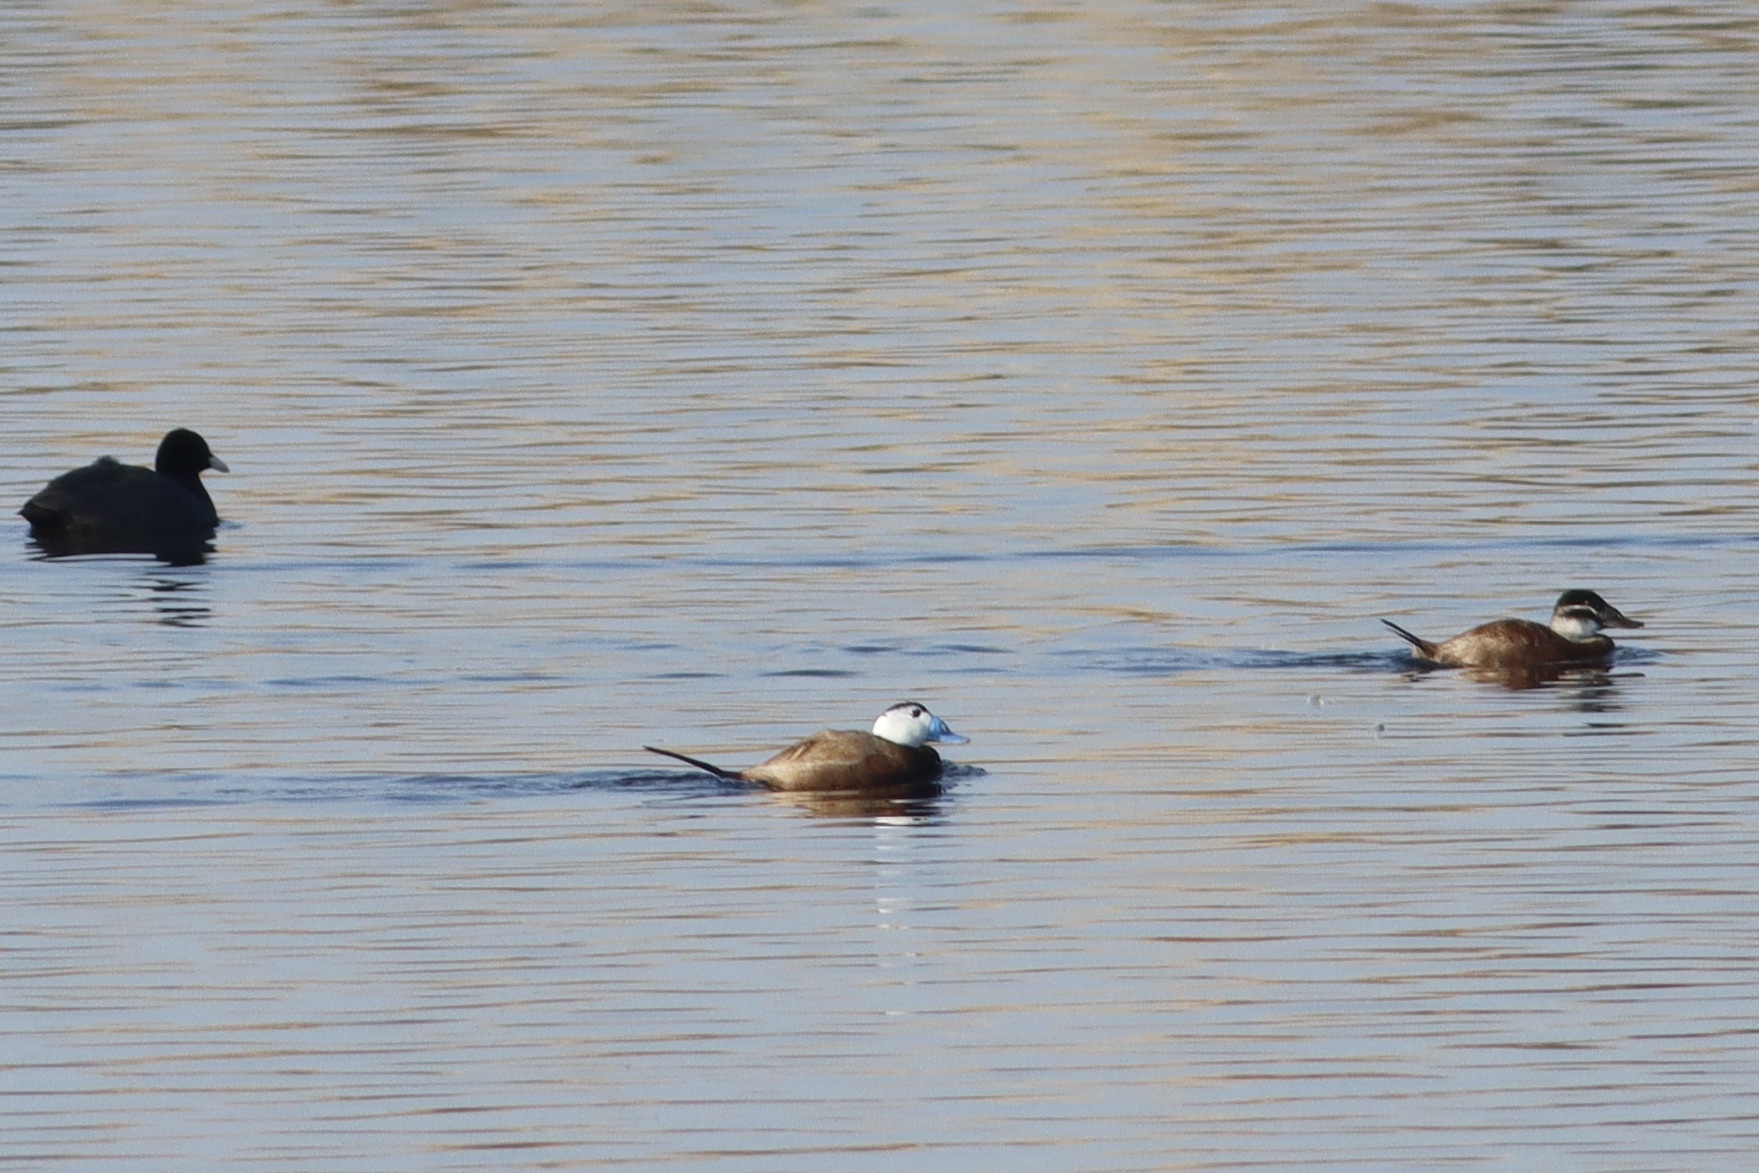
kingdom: Animalia
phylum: Chordata
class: Aves
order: Anseriformes
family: Anatidae
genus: Oxyura
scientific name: Oxyura leucocephala
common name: White-headed duck
